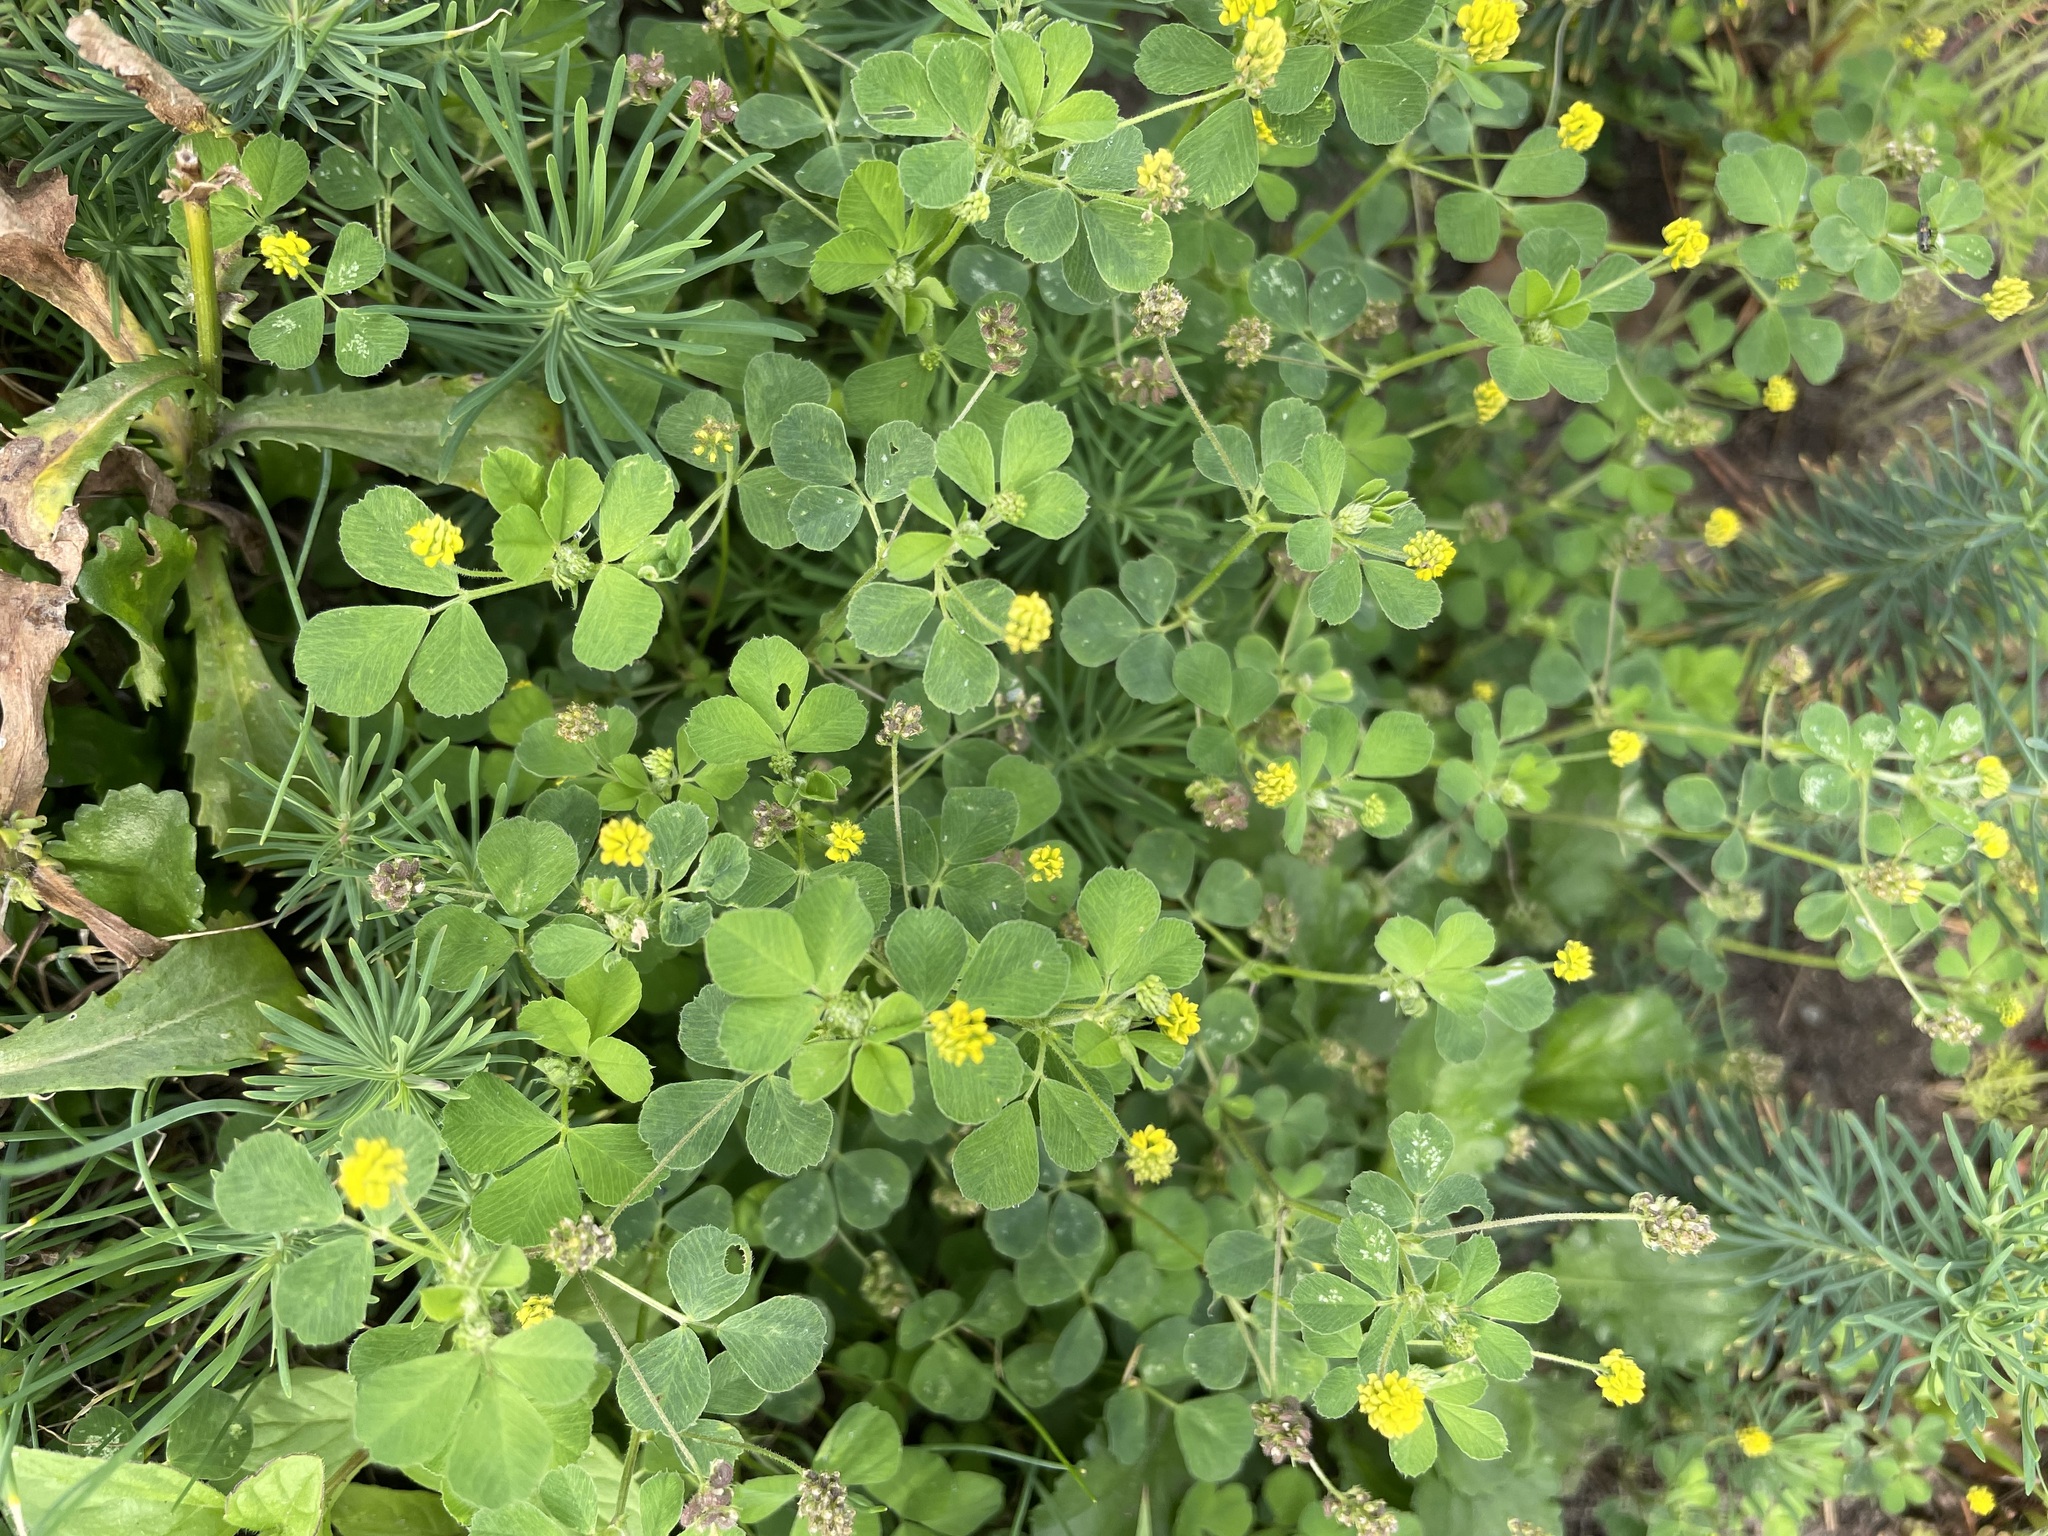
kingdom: Plantae
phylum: Tracheophyta
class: Magnoliopsida
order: Fabales
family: Fabaceae
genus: Medicago
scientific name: Medicago lupulina
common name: Black medick
